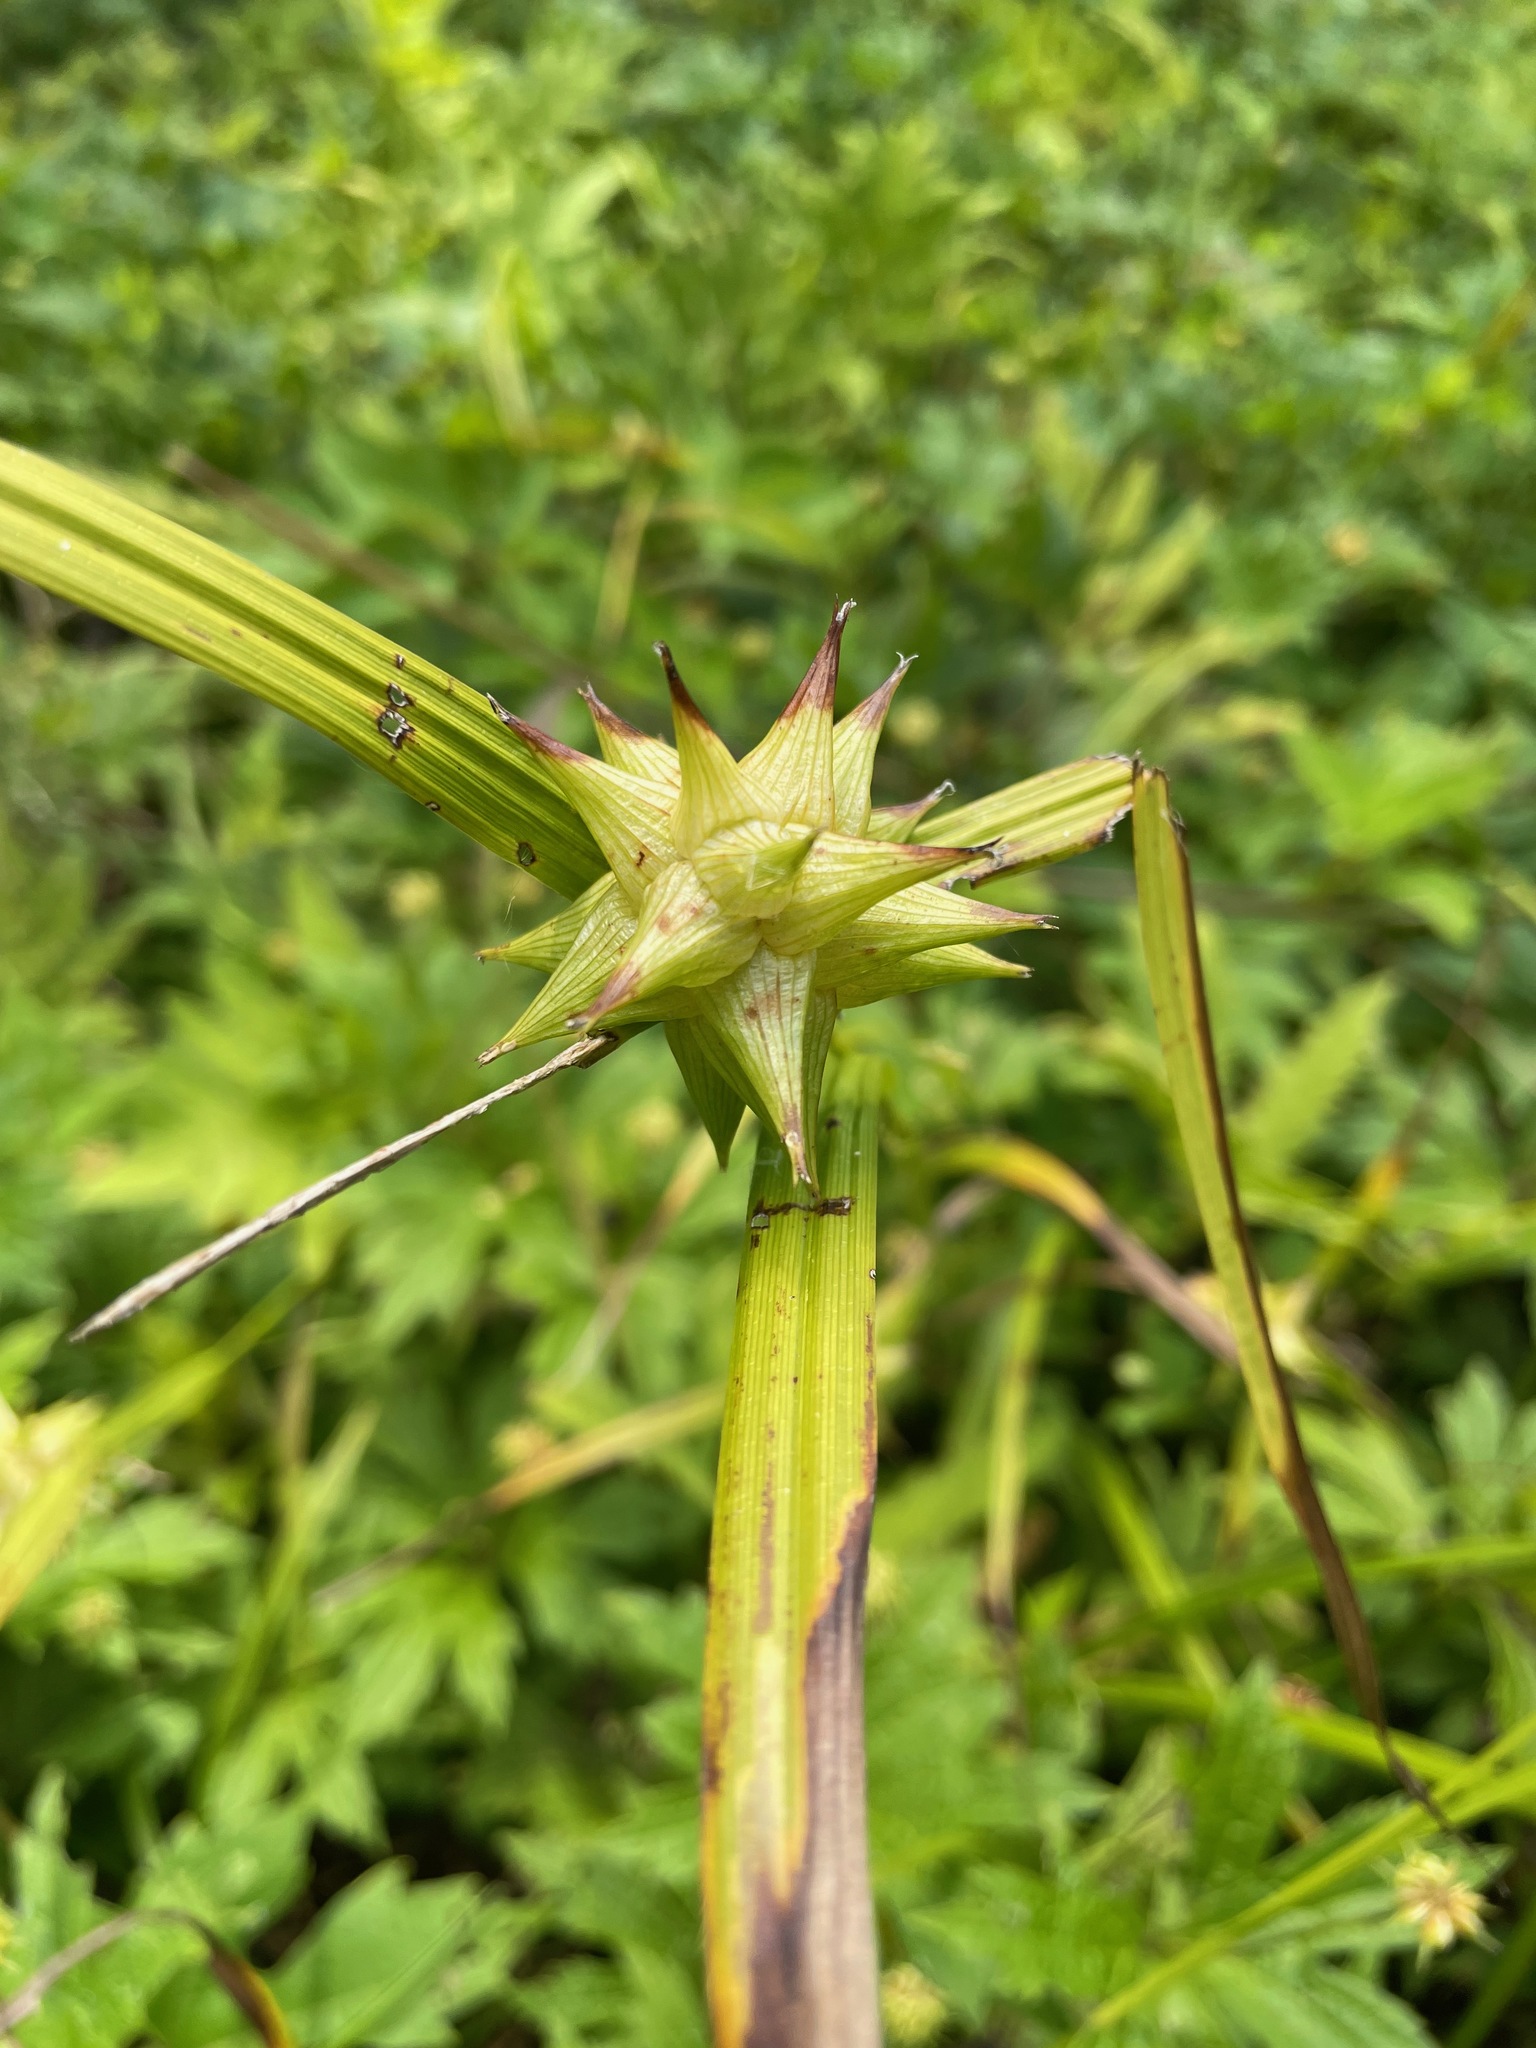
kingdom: Plantae
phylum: Tracheophyta
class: Liliopsida
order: Poales
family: Cyperaceae
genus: Carex
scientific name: Carex grayi
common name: Asa gray's sedge
